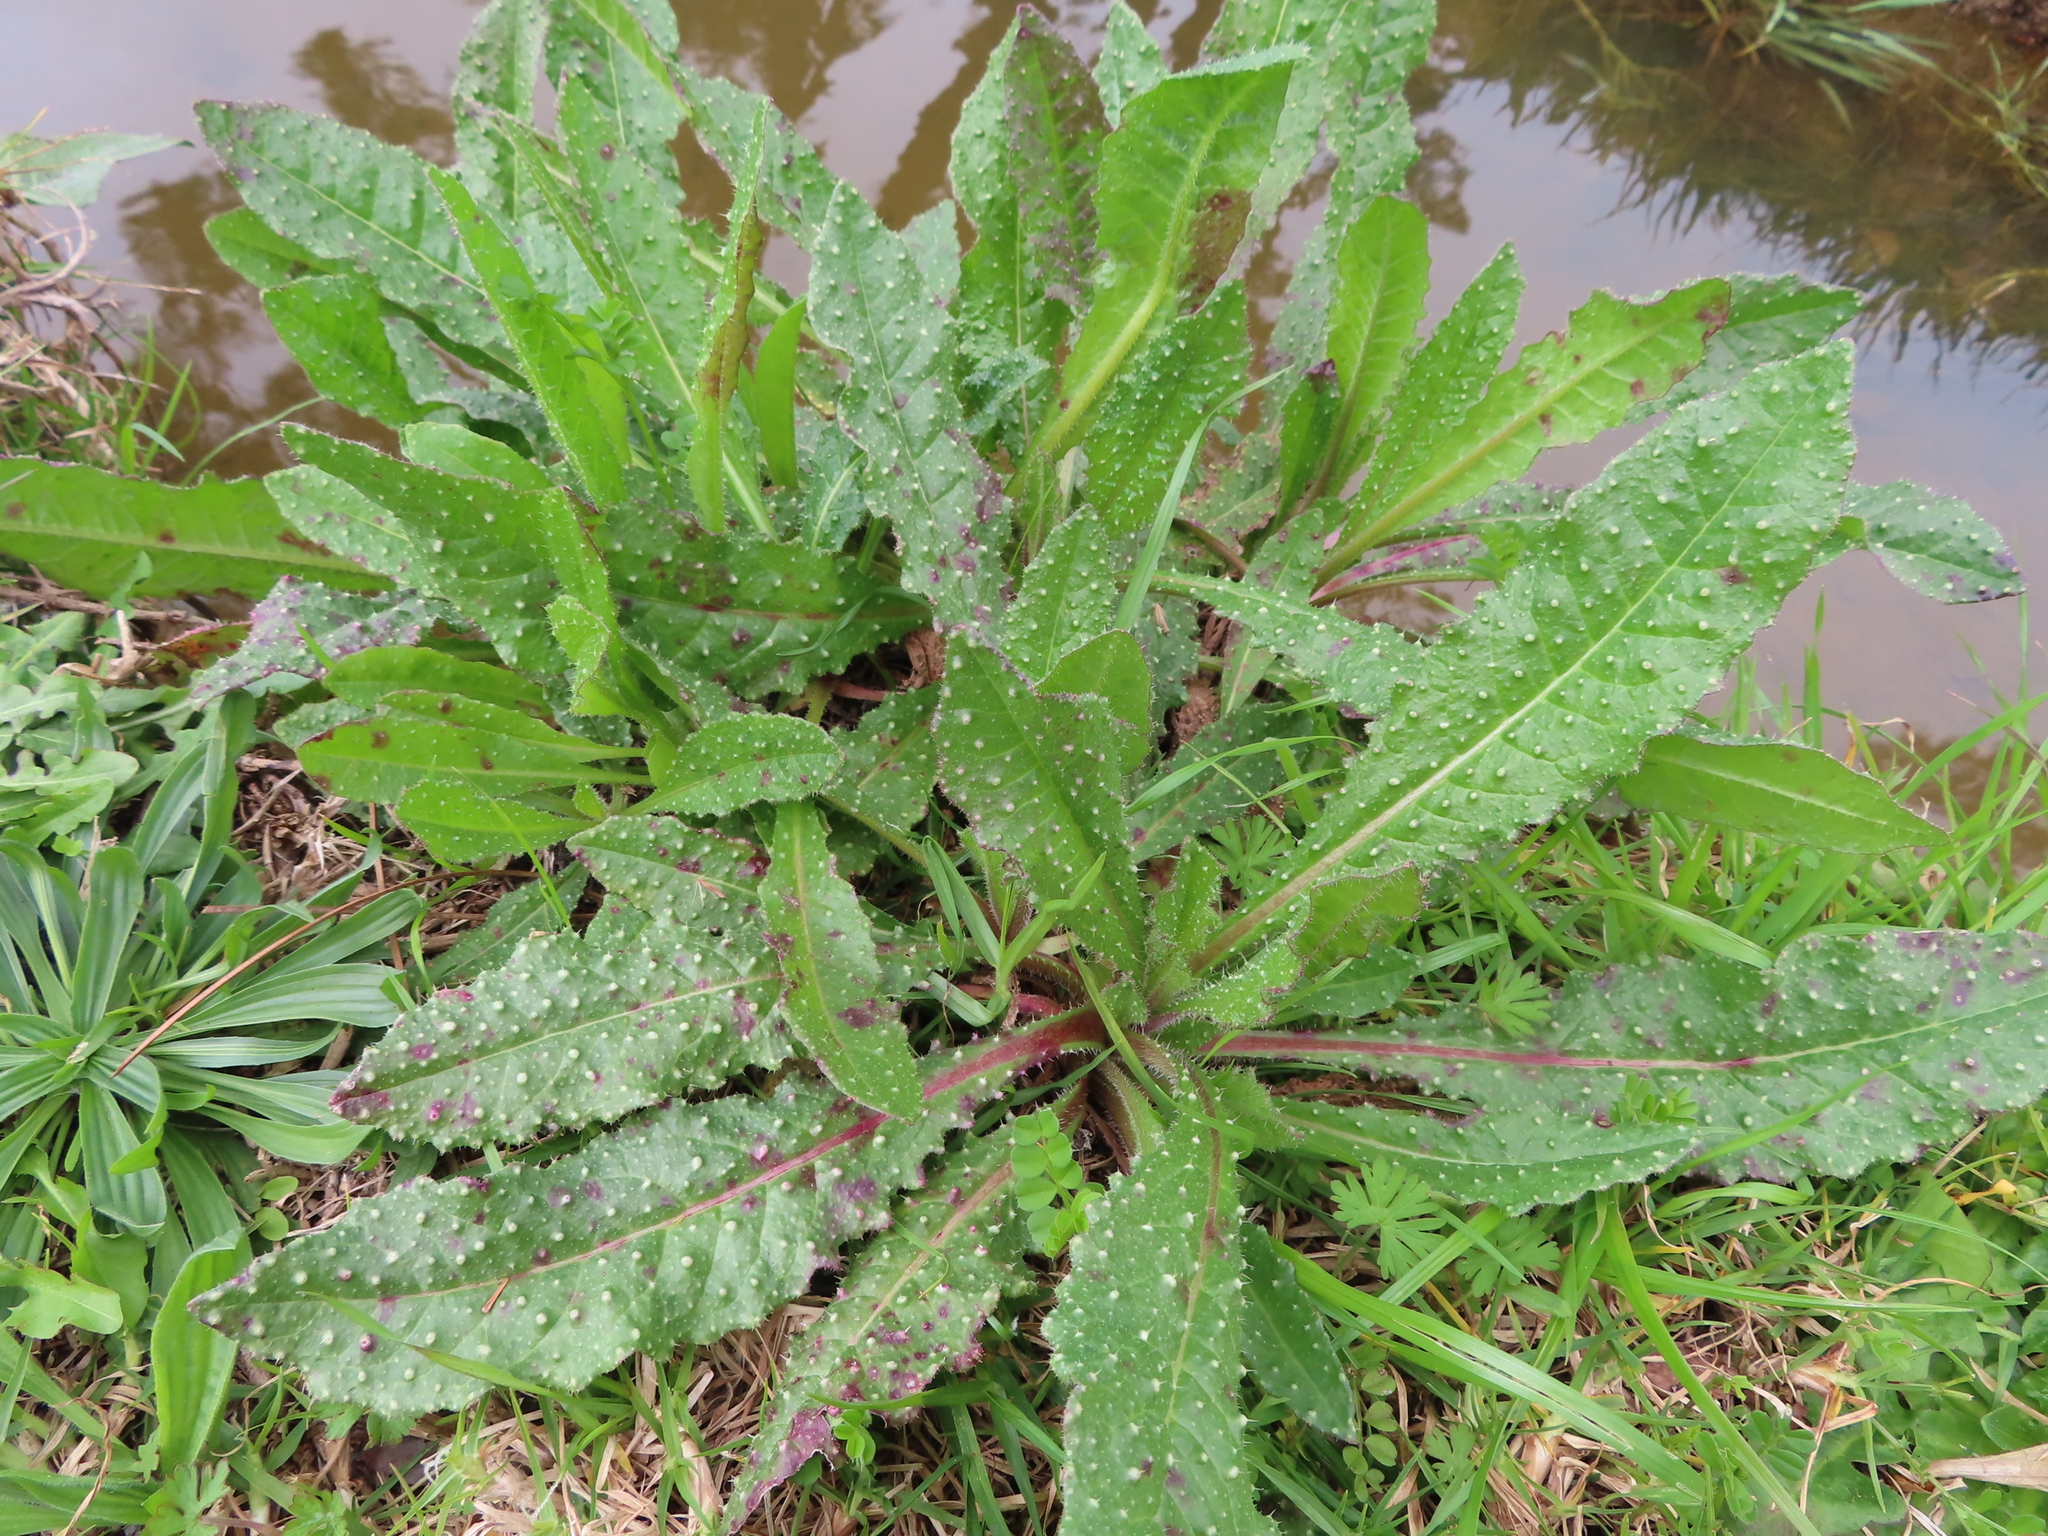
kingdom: Plantae
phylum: Tracheophyta
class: Magnoliopsida
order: Asterales
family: Asteraceae
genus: Helminthotheca
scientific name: Helminthotheca echioides
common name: Ox-tongue
